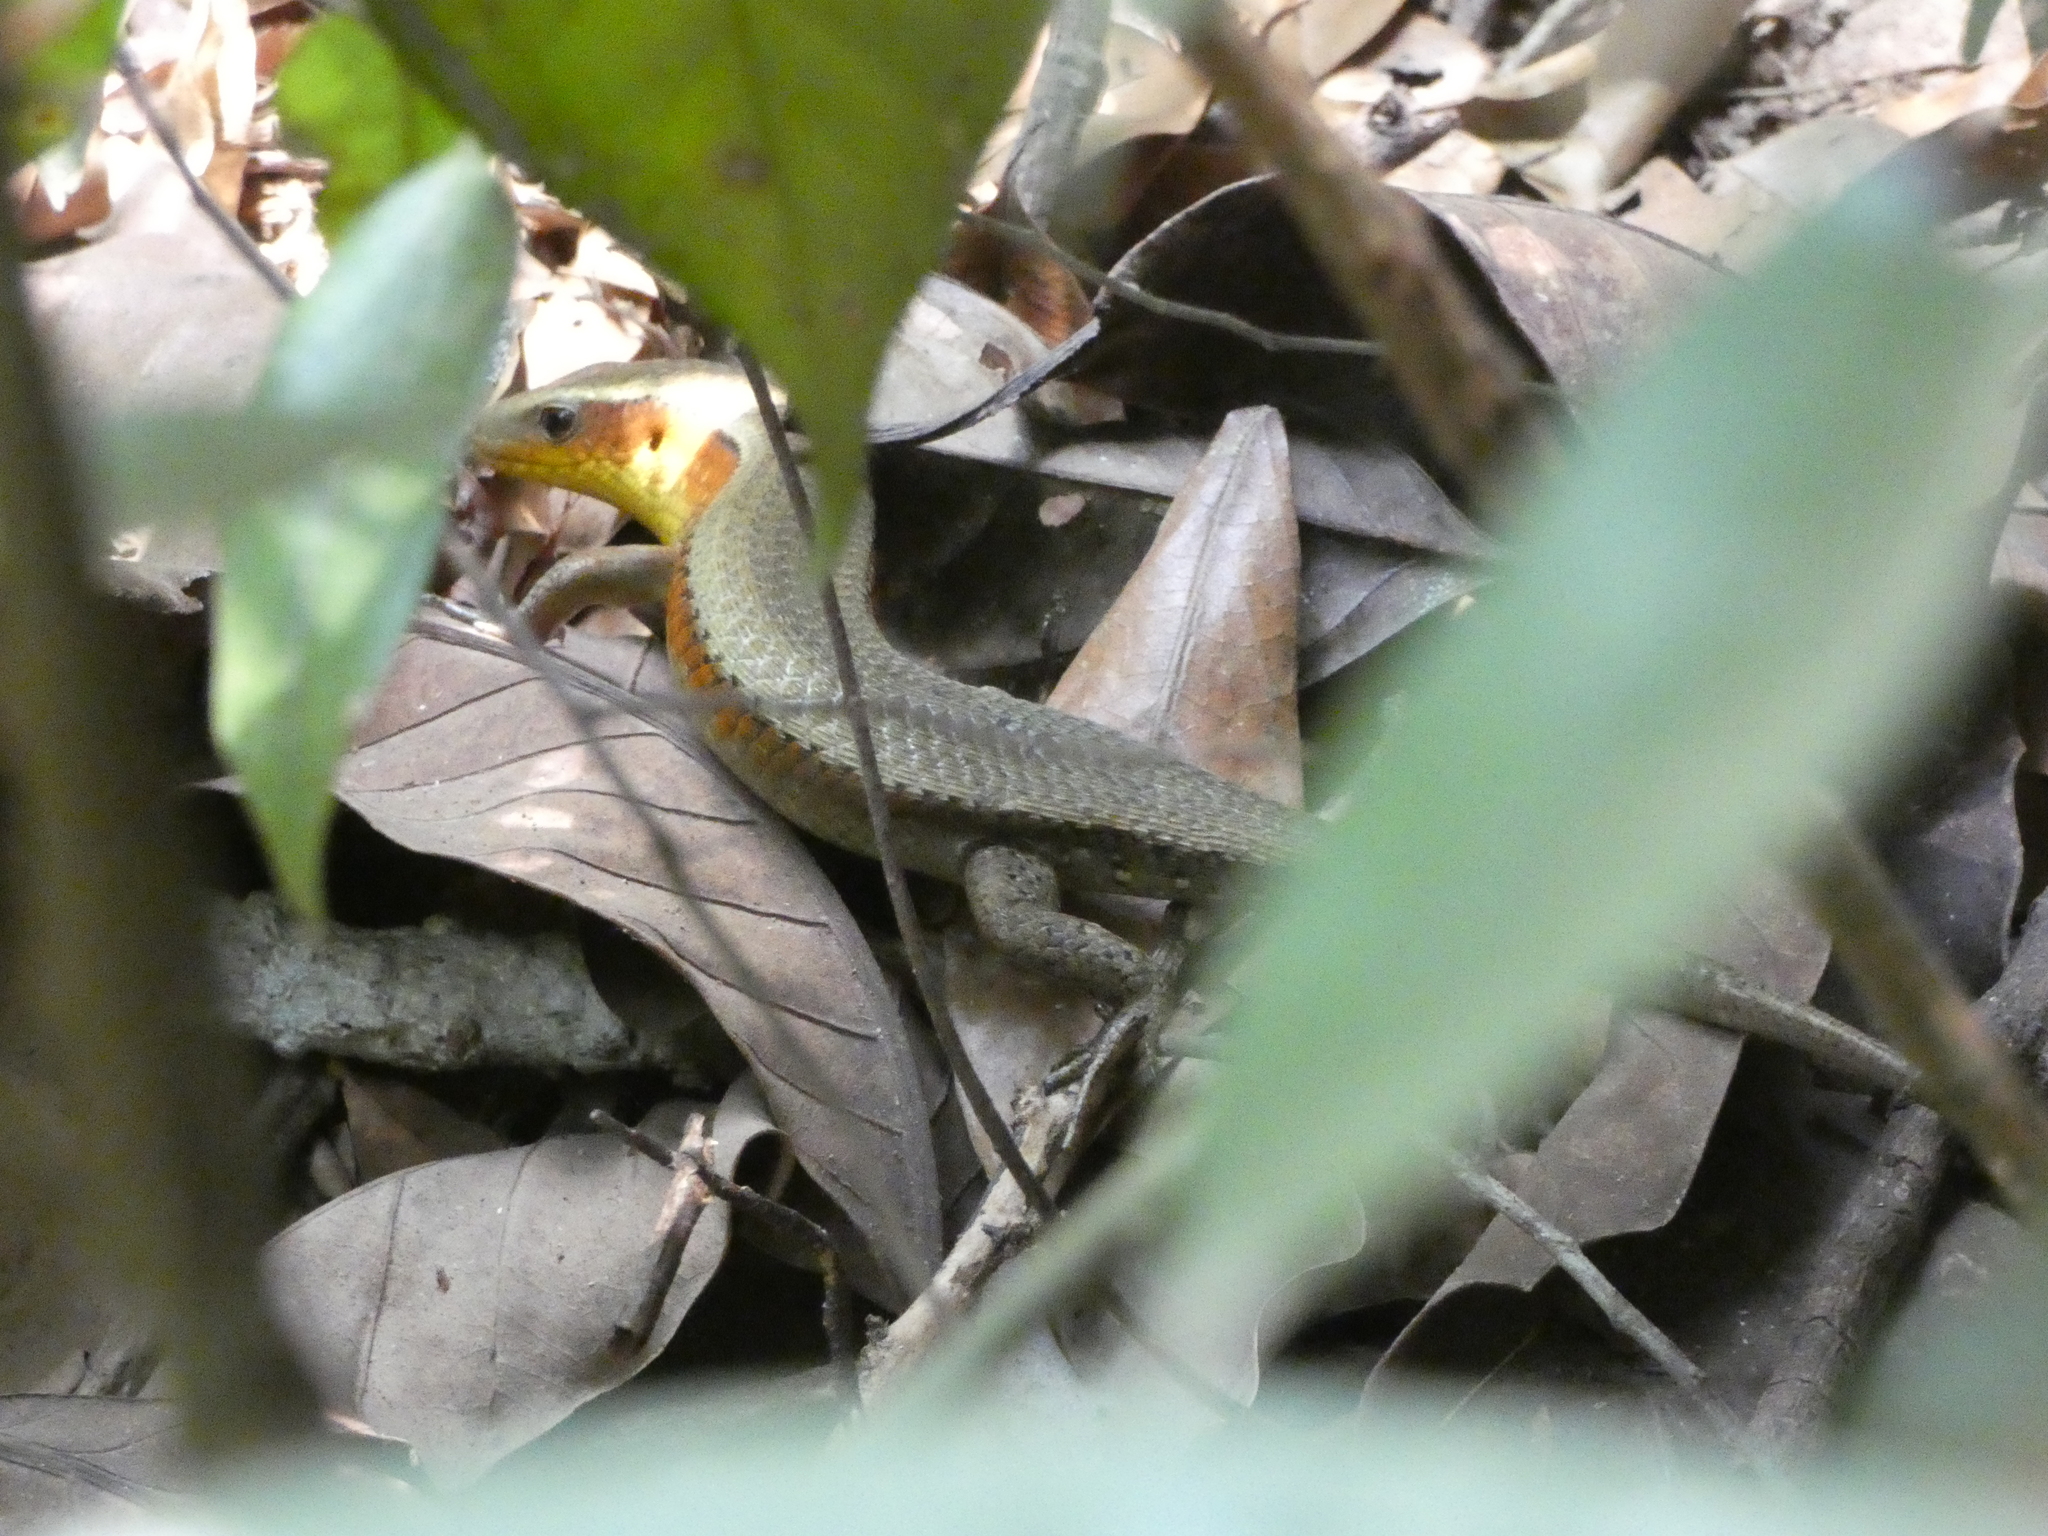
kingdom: Animalia
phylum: Chordata
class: Squamata
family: Scincidae
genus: Eutropis
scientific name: Eutropis multifasciata
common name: Common mabuya
